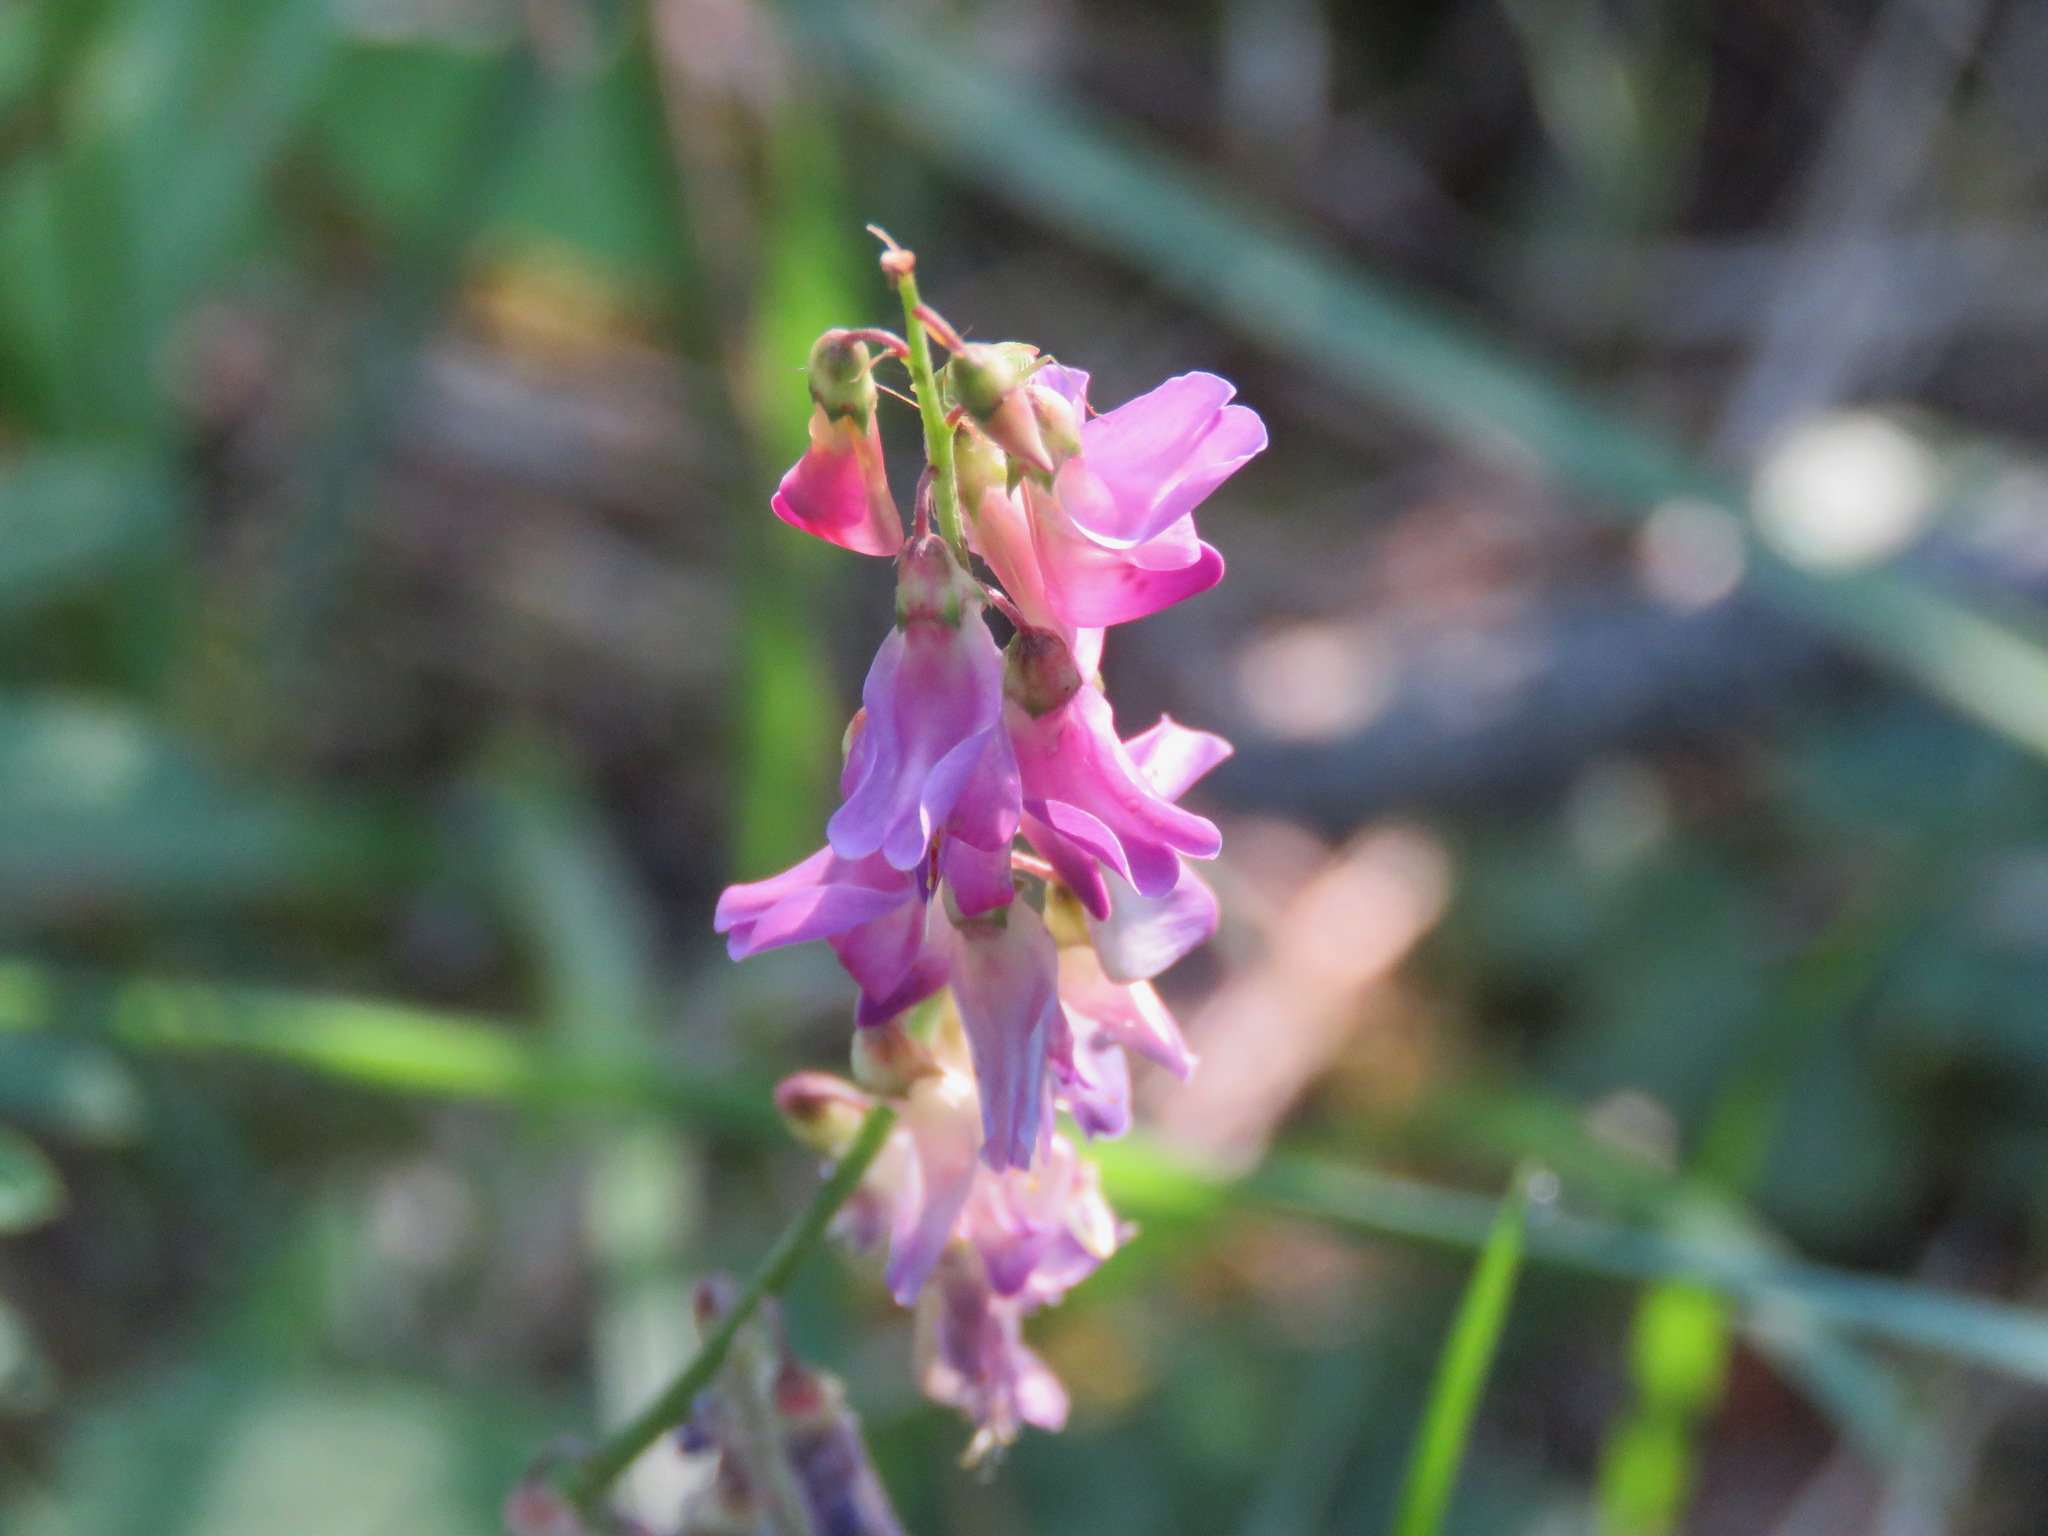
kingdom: Plantae
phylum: Tracheophyta
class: Magnoliopsida
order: Fabales
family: Fabaceae
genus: Hedysarum
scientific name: Hedysarum
